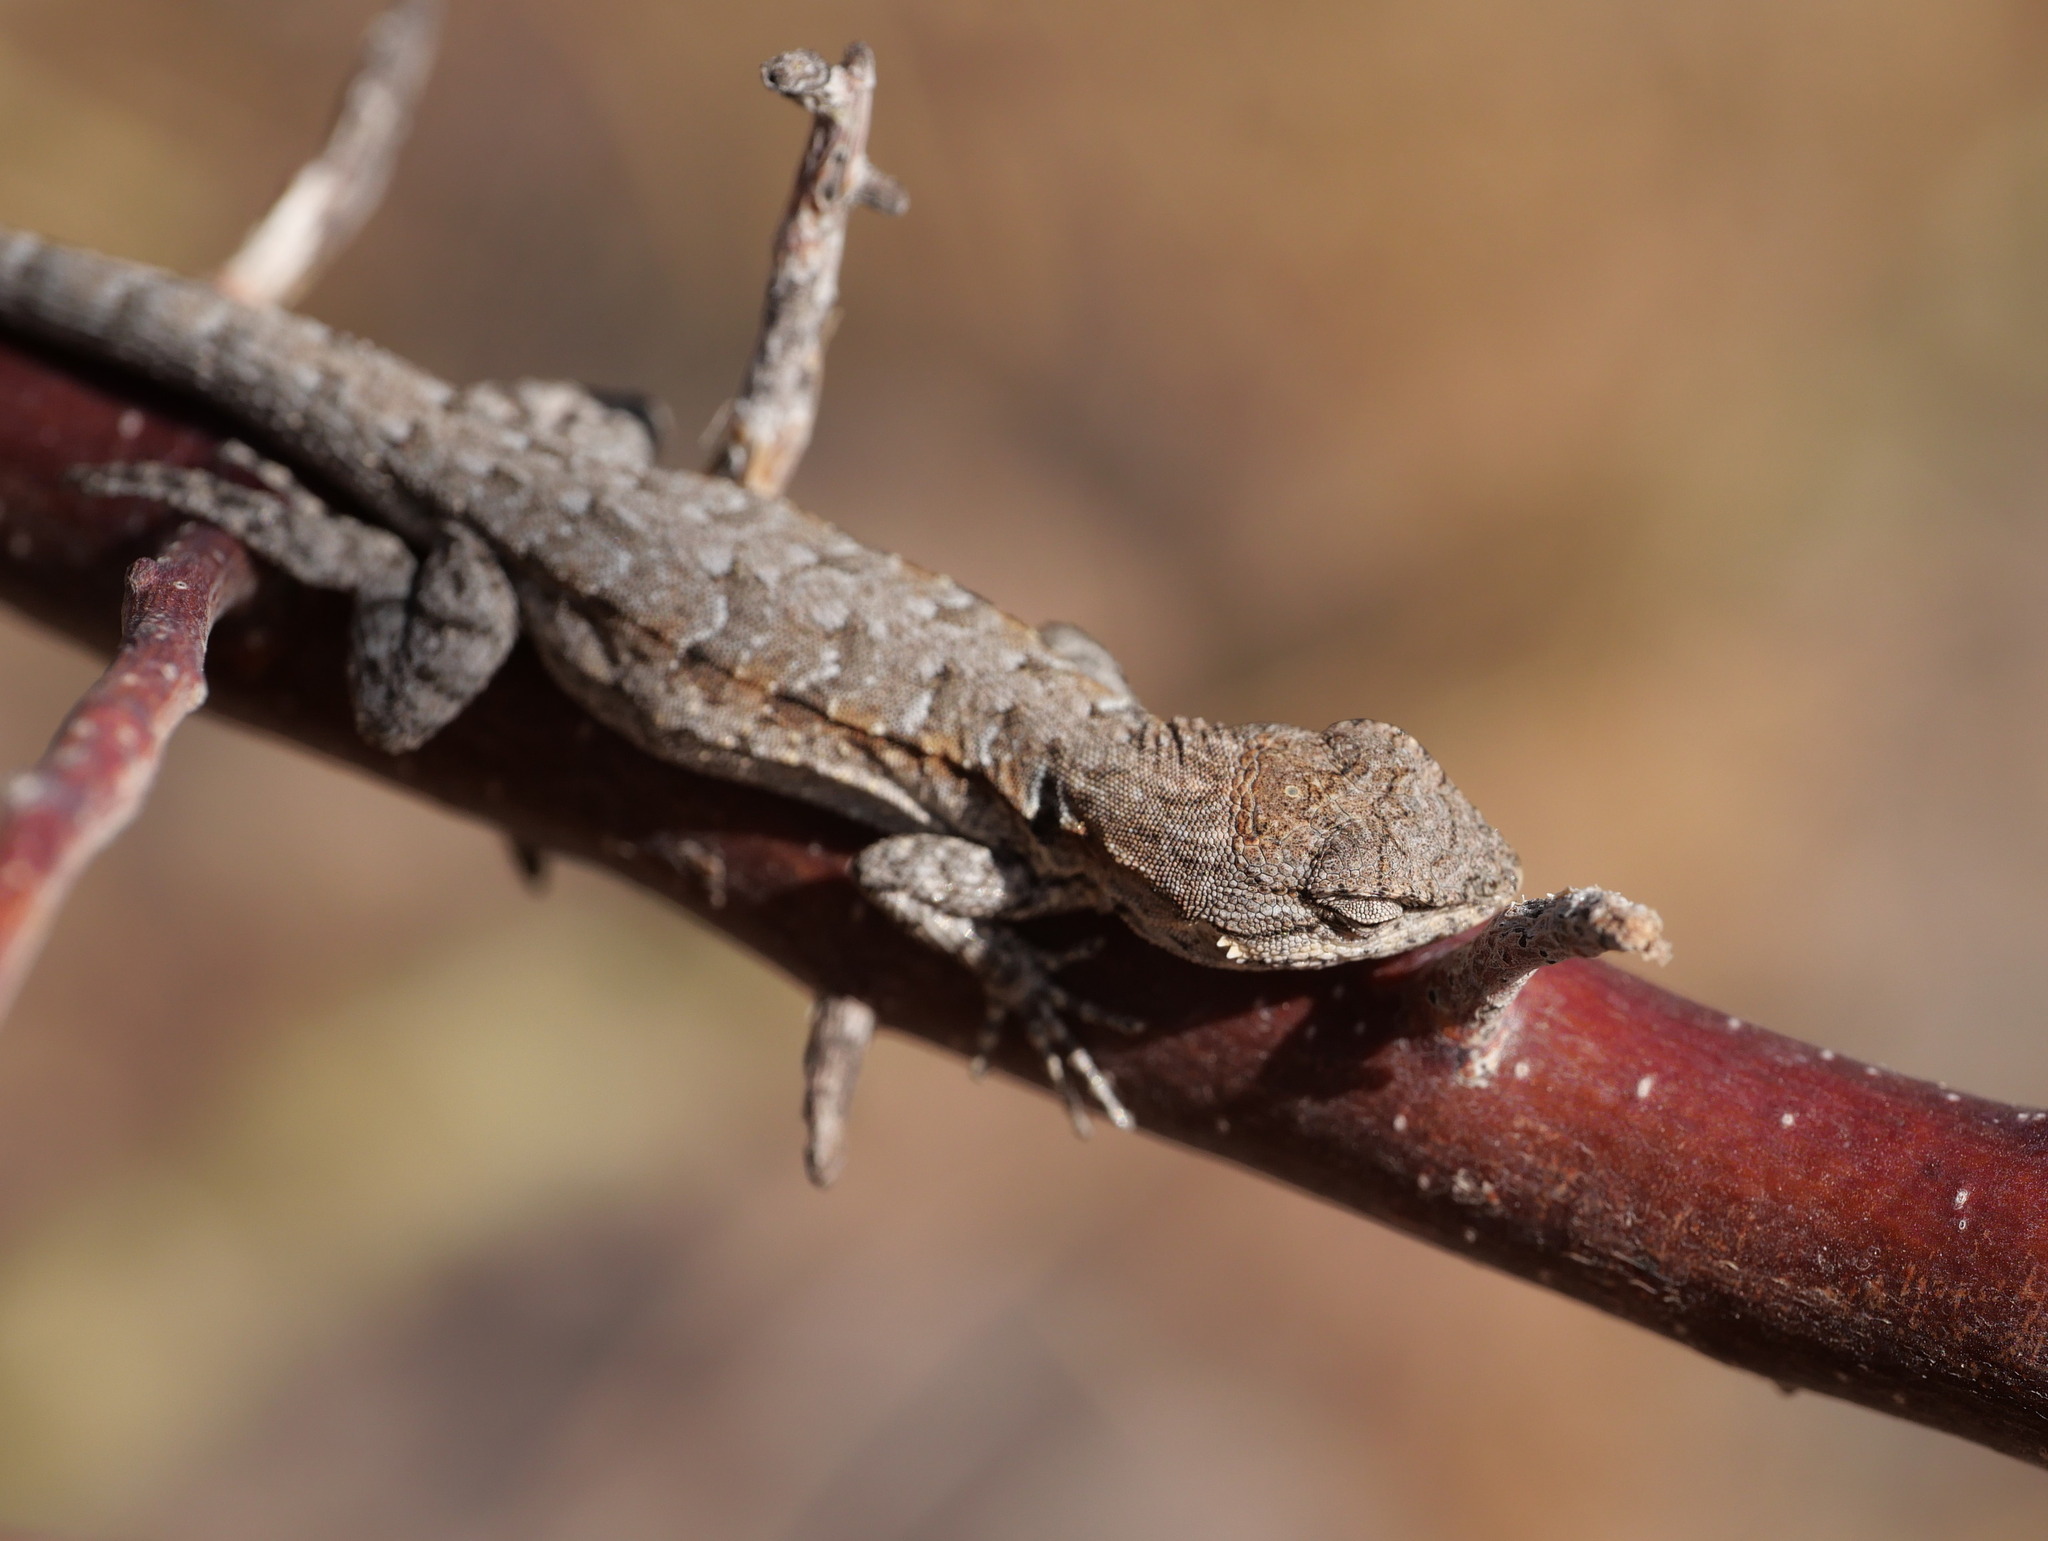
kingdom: Animalia
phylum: Chordata
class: Squamata
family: Phrynosomatidae
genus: Urosaurus
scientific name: Urosaurus nigricauda
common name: Baja california brush lizard
